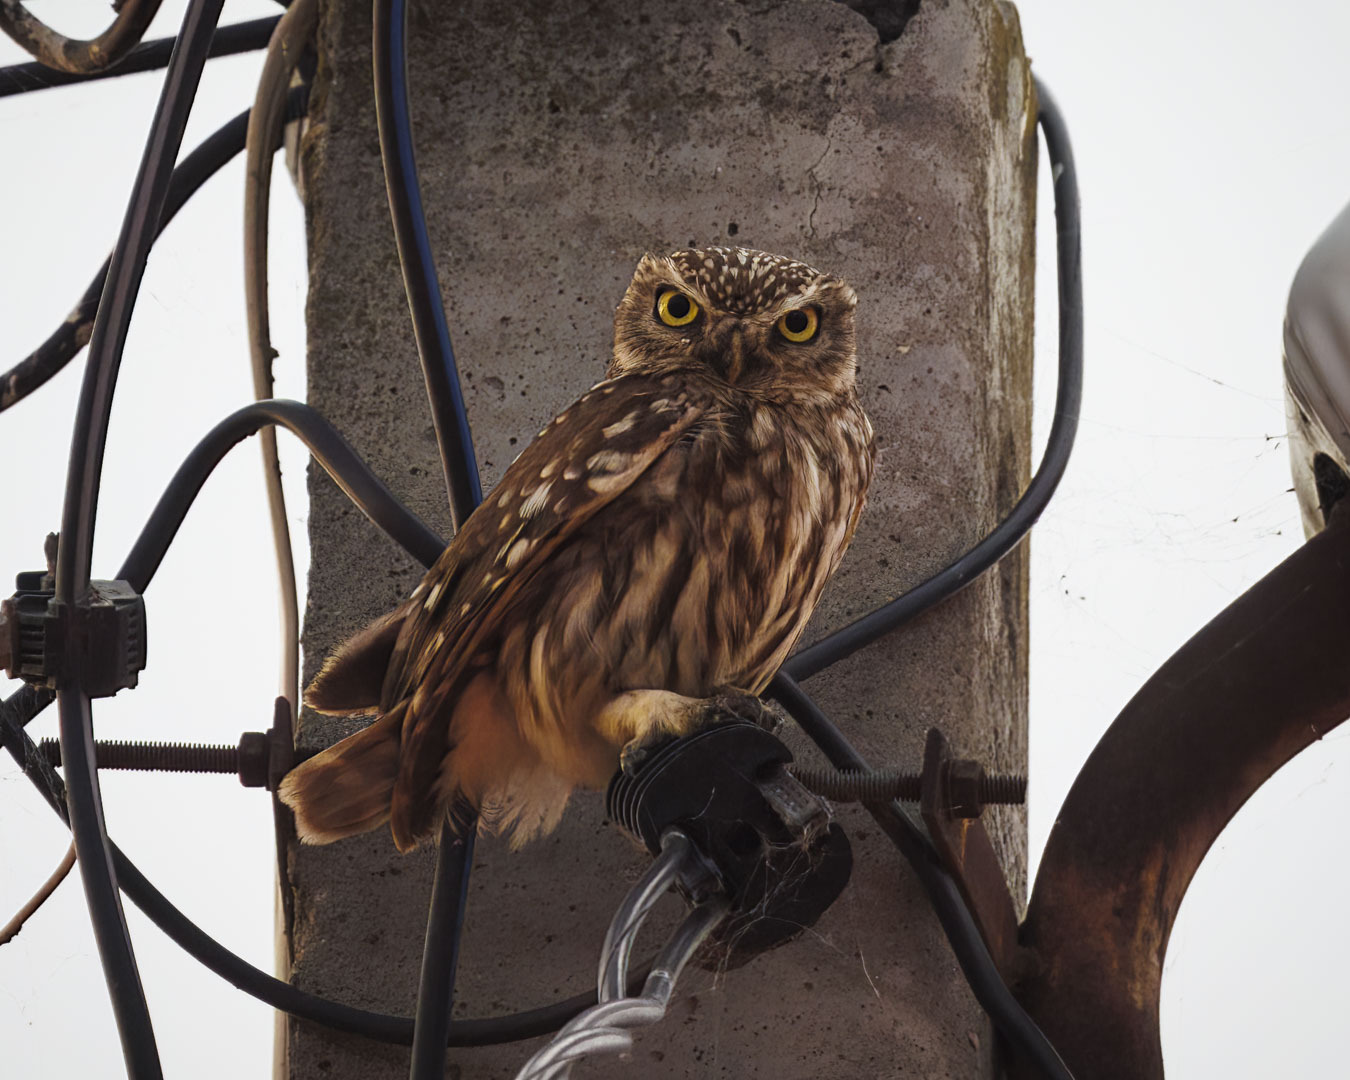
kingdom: Animalia
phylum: Chordata
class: Aves
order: Strigiformes
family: Strigidae
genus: Athene
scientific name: Athene noctua
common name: Little owl
